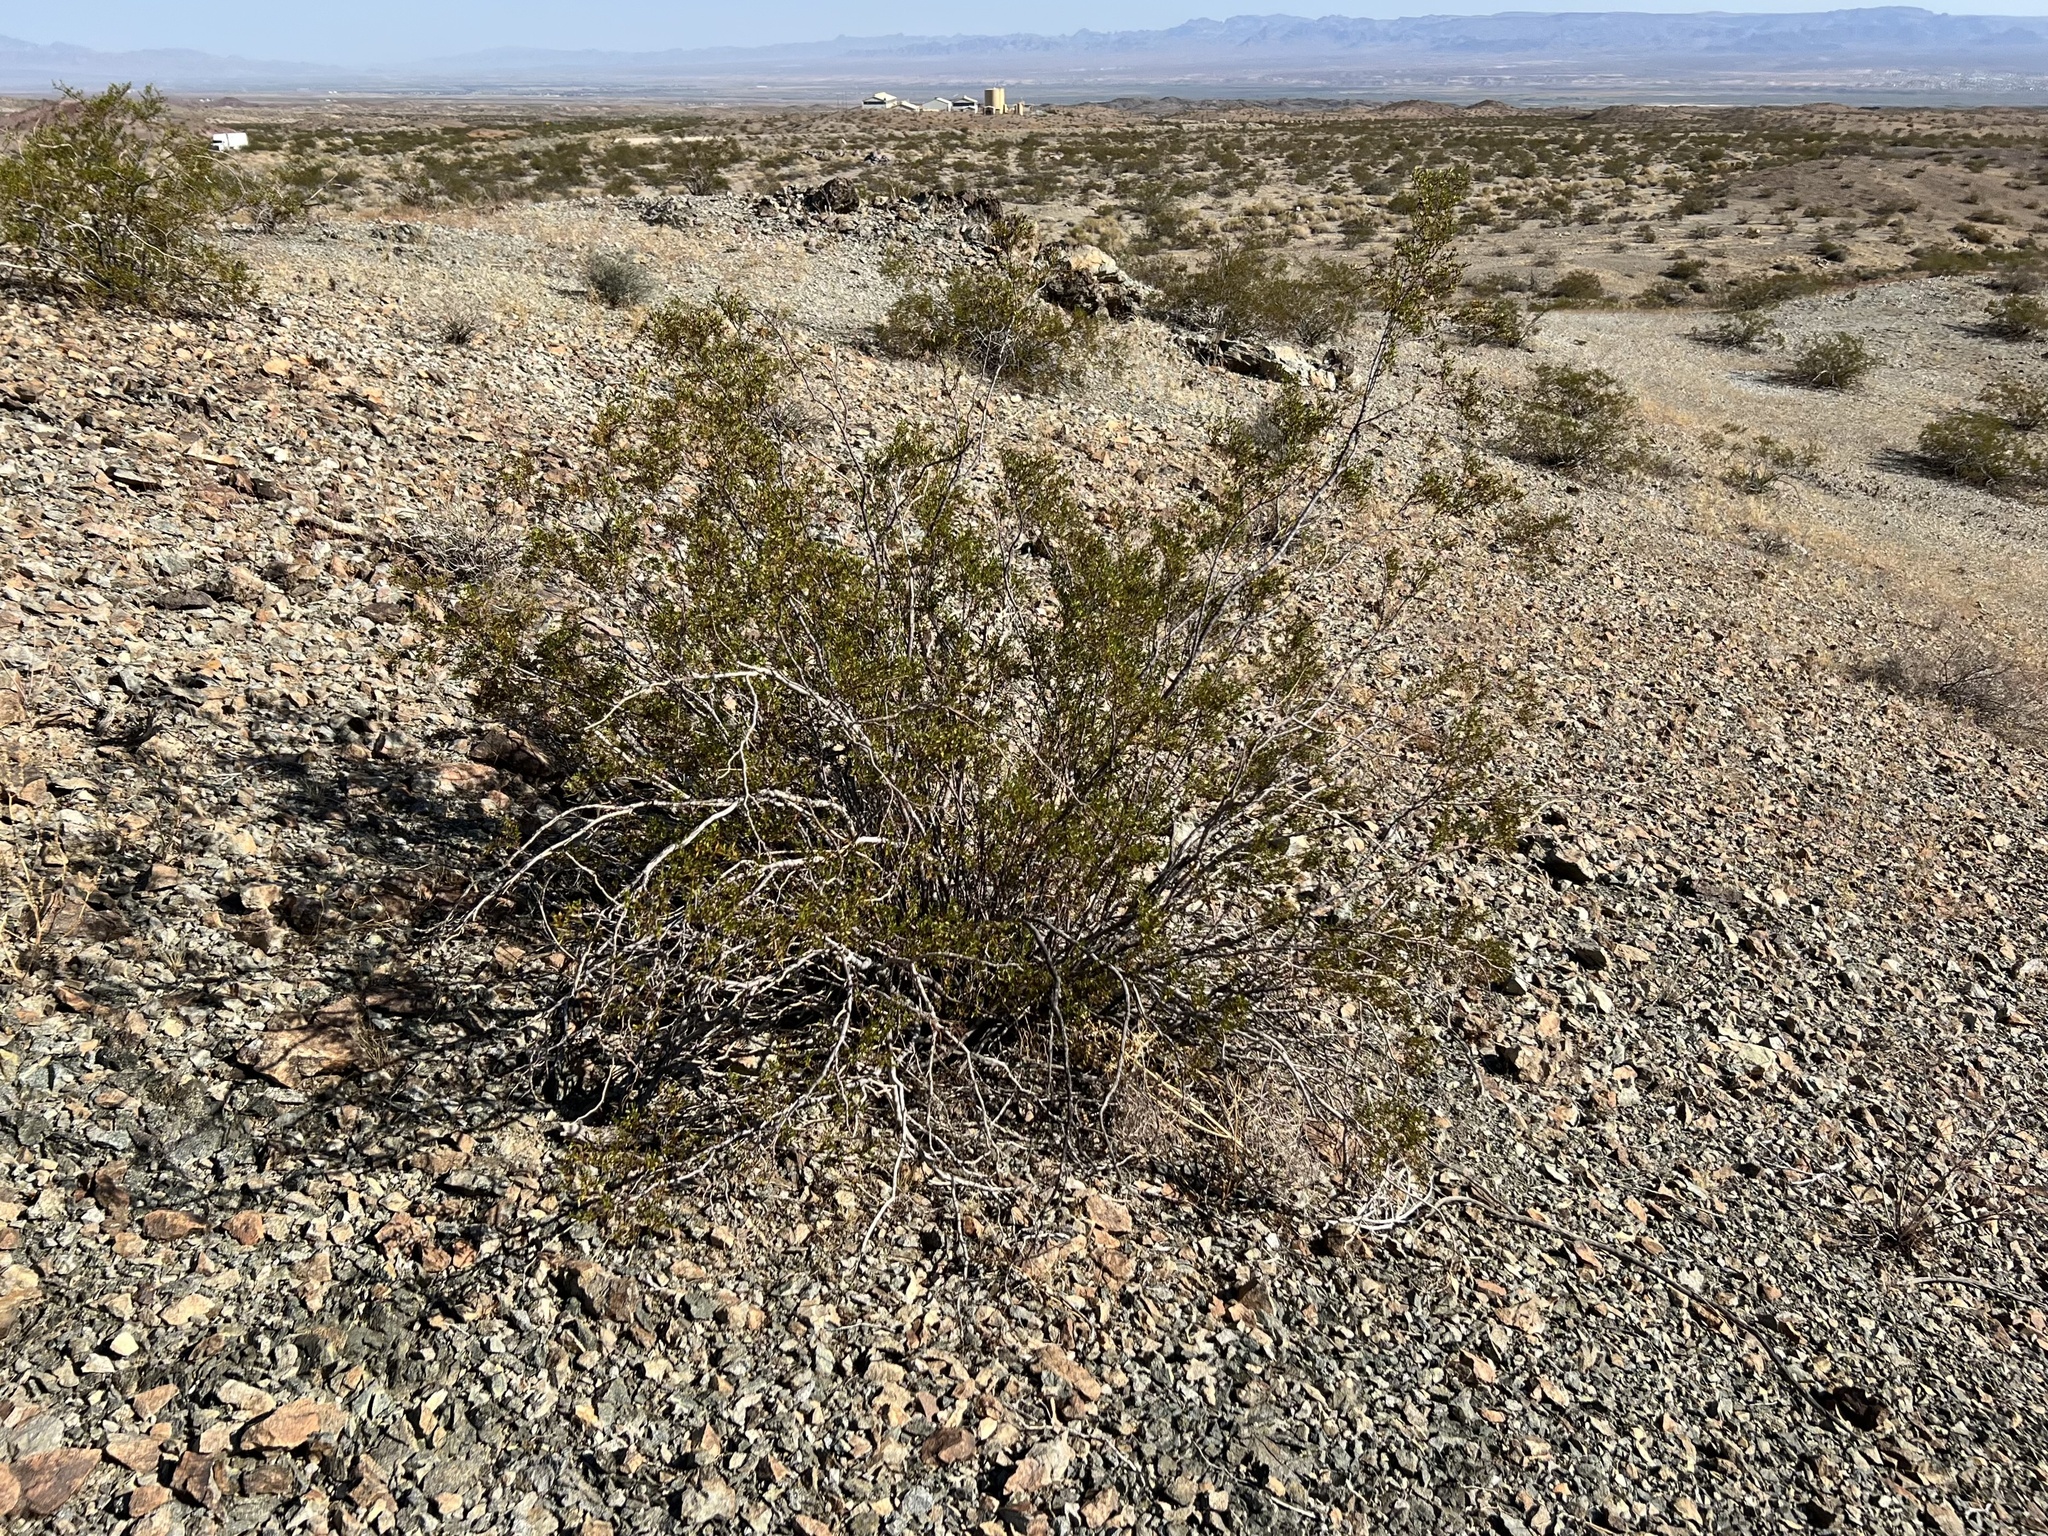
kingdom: Plantae
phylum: Tracheophyta
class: Magnoliopsida
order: Zygophyllales
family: Zygophyllaceae
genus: Larrea
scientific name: Larrea tridentata
